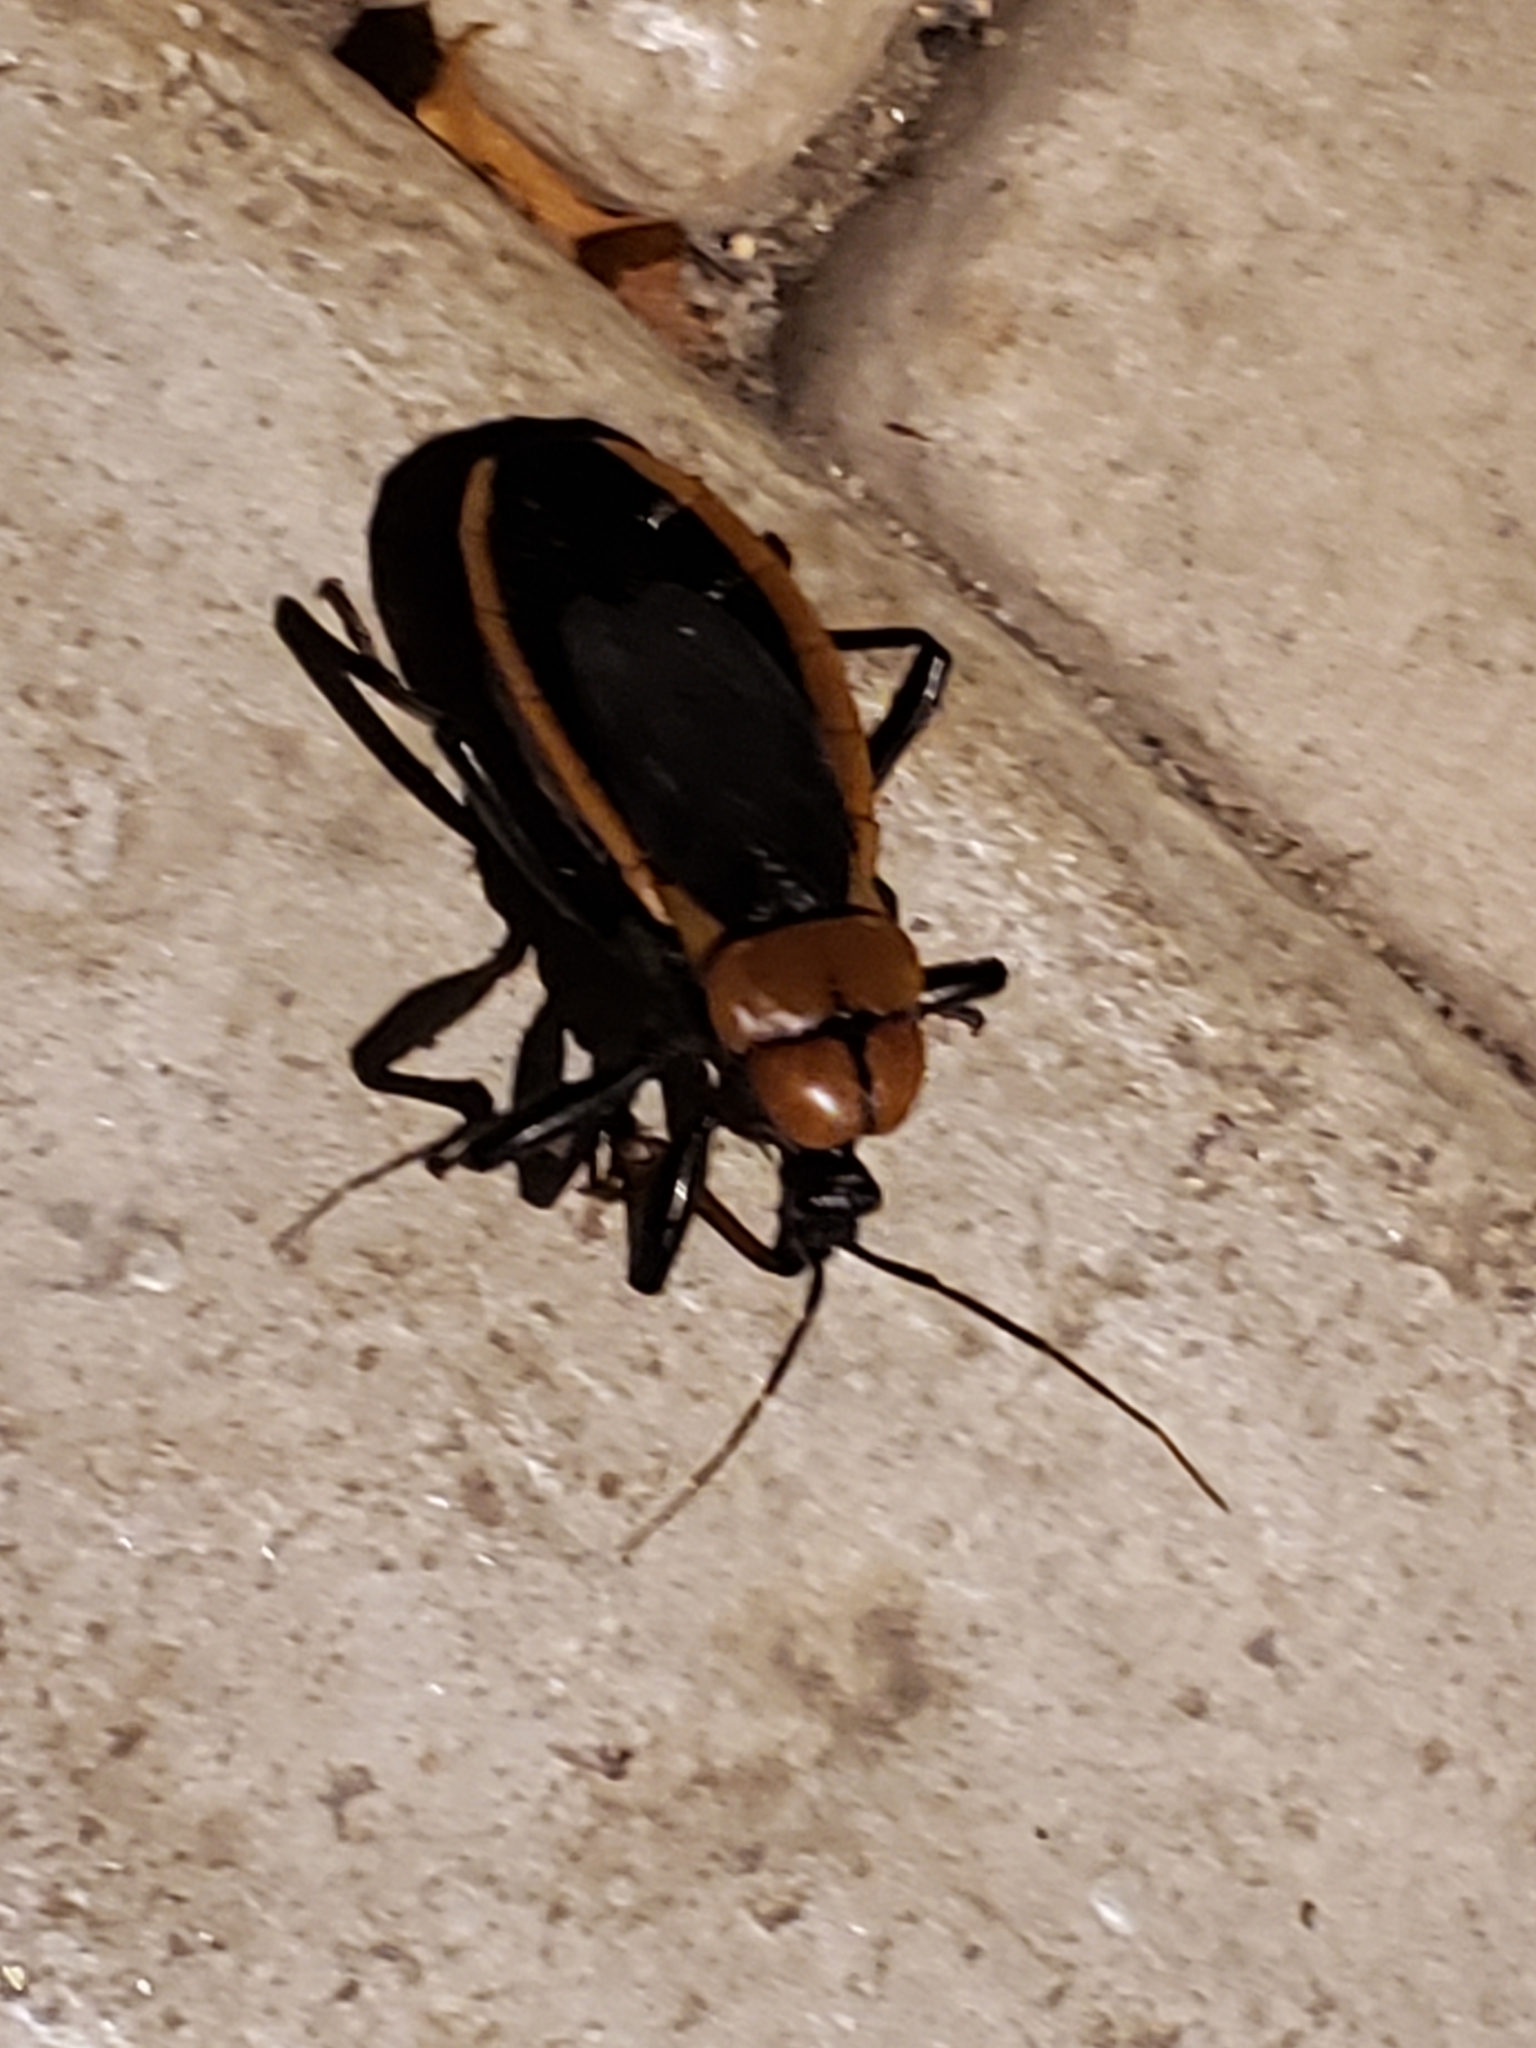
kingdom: Animalia
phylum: Arthropoda
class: Insecta
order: Hemiptera
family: Reduviidae
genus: Ectrichodia
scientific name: Ectrichodia crux
